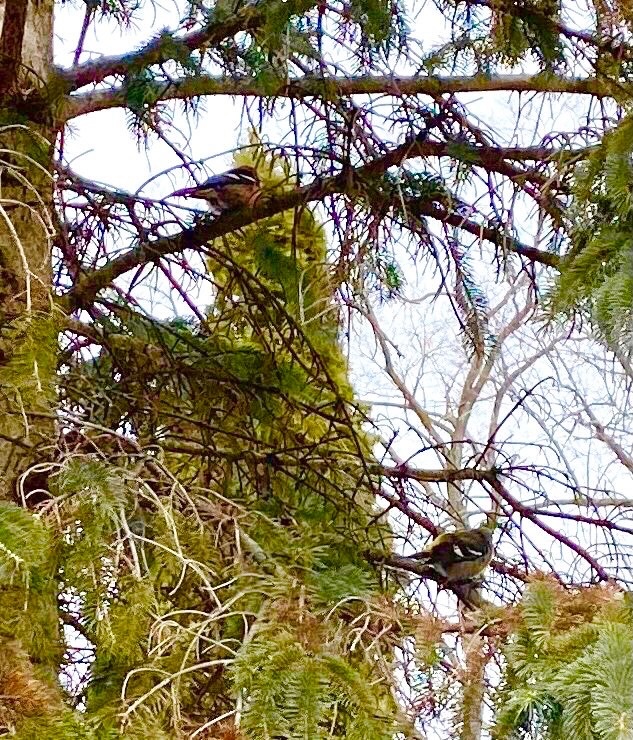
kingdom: Animalia
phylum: Chordata
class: Aves
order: Passeriformes
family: Fringillidae
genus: Loxia
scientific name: Loxia leucoptera
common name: Two-barred crossbill
